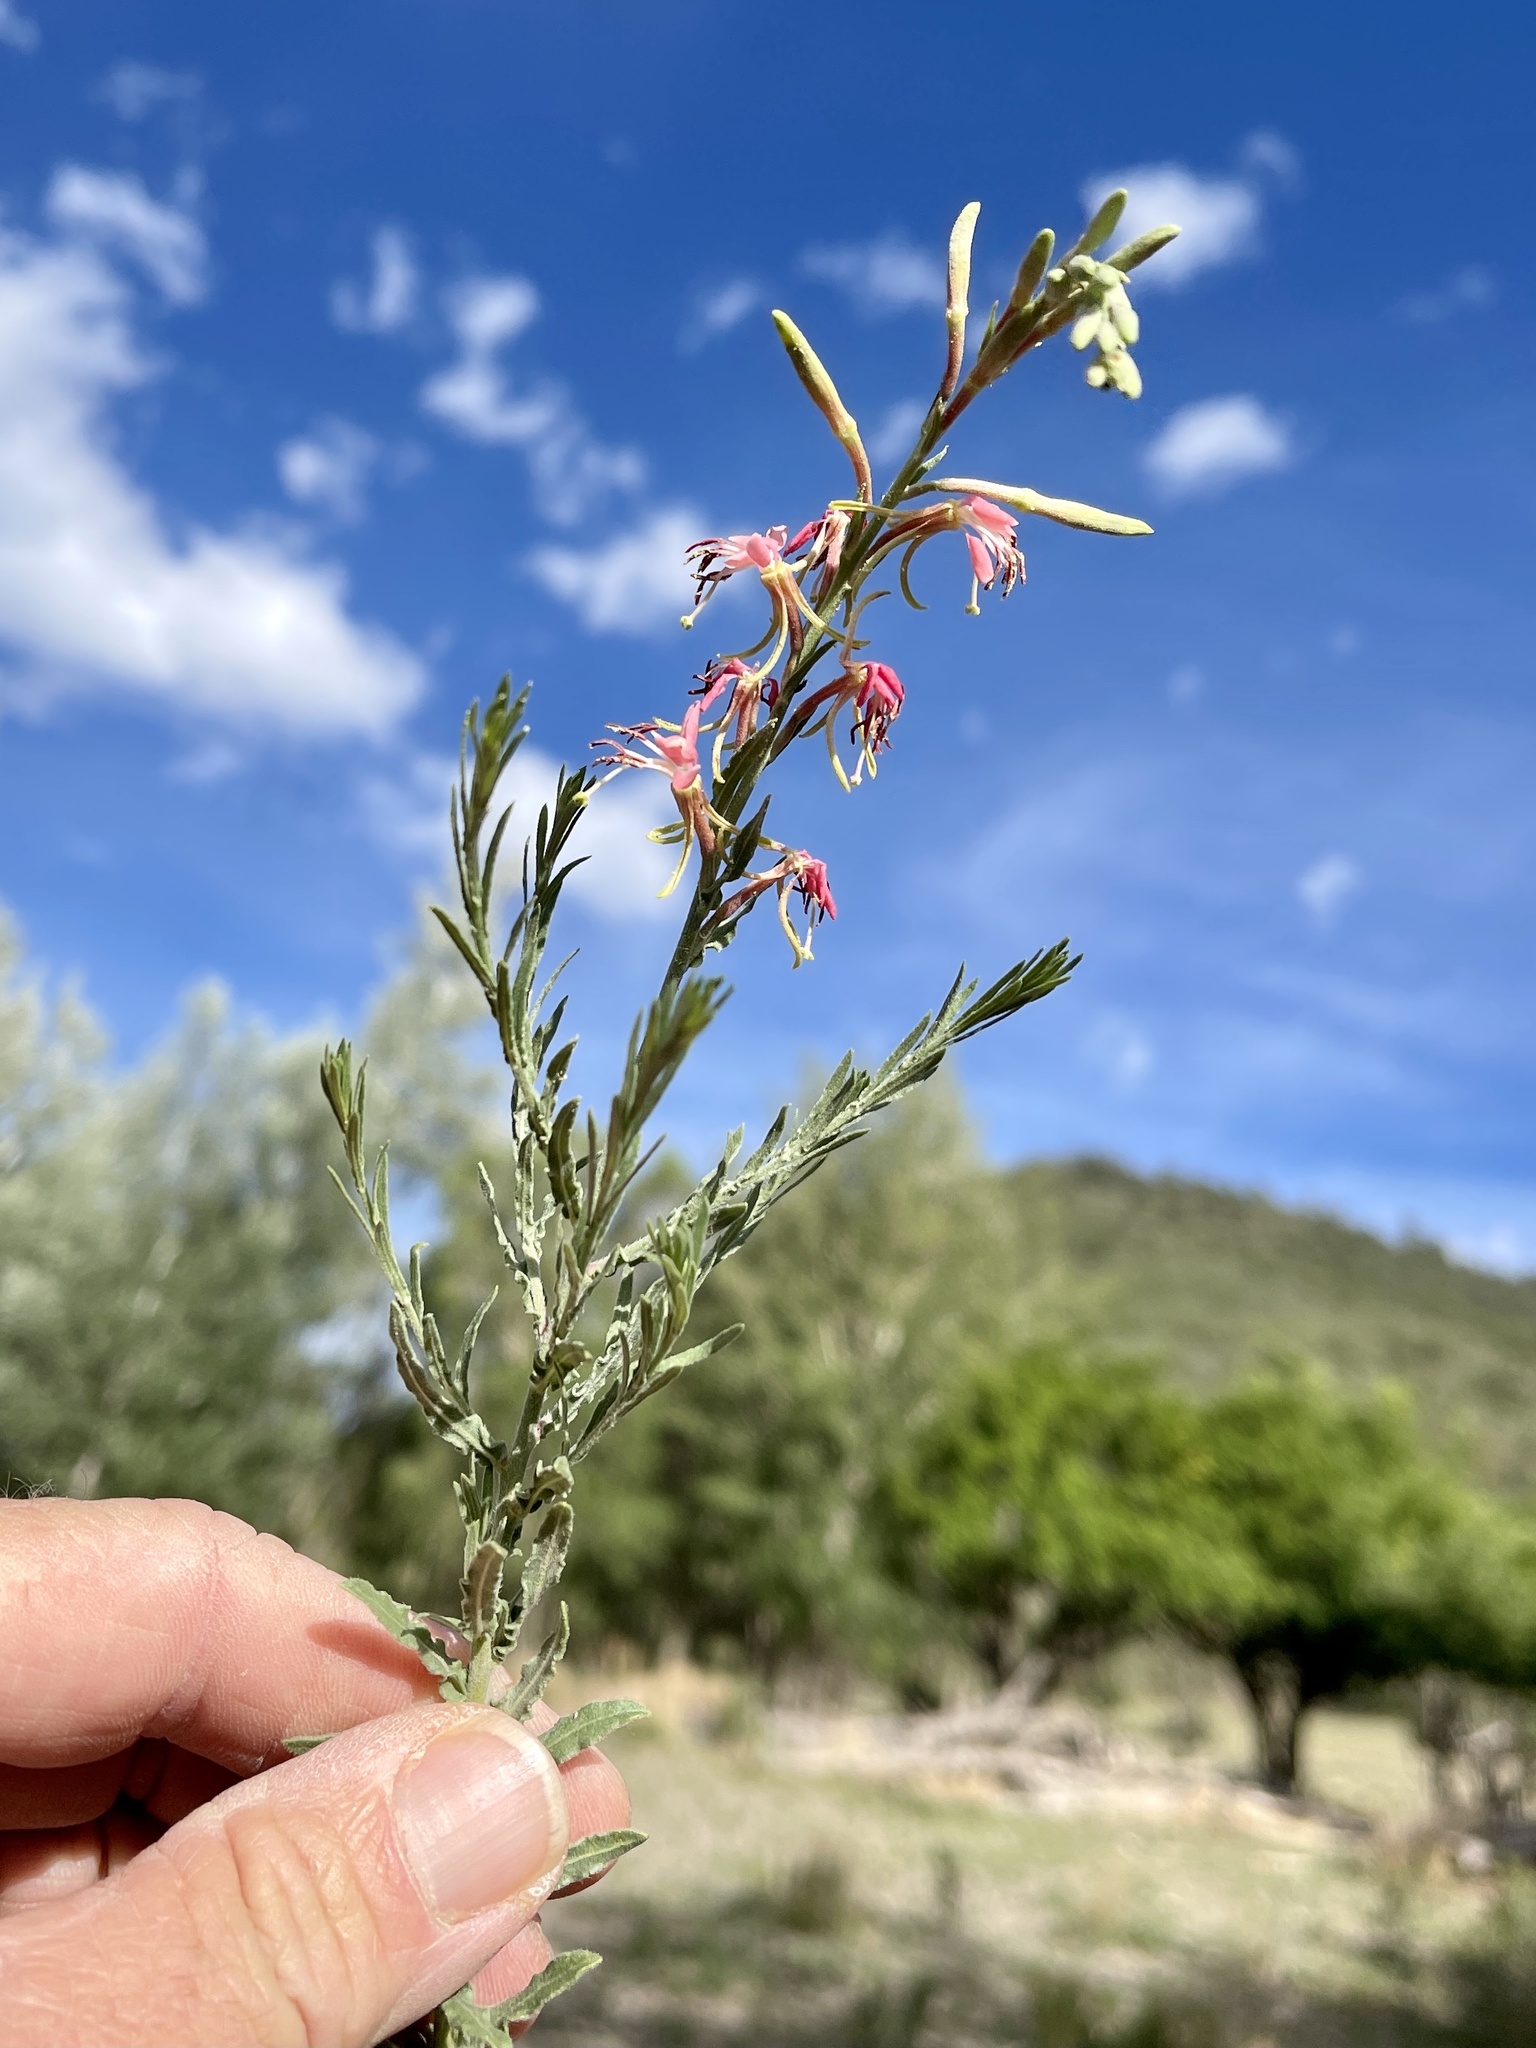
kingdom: Plantae
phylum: Tracheophyta
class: Magnoliopsida
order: Myrtales
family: Onagraceae
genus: Oenothera
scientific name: Oenothera suffrutescens
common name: Scarlet beeblossom
